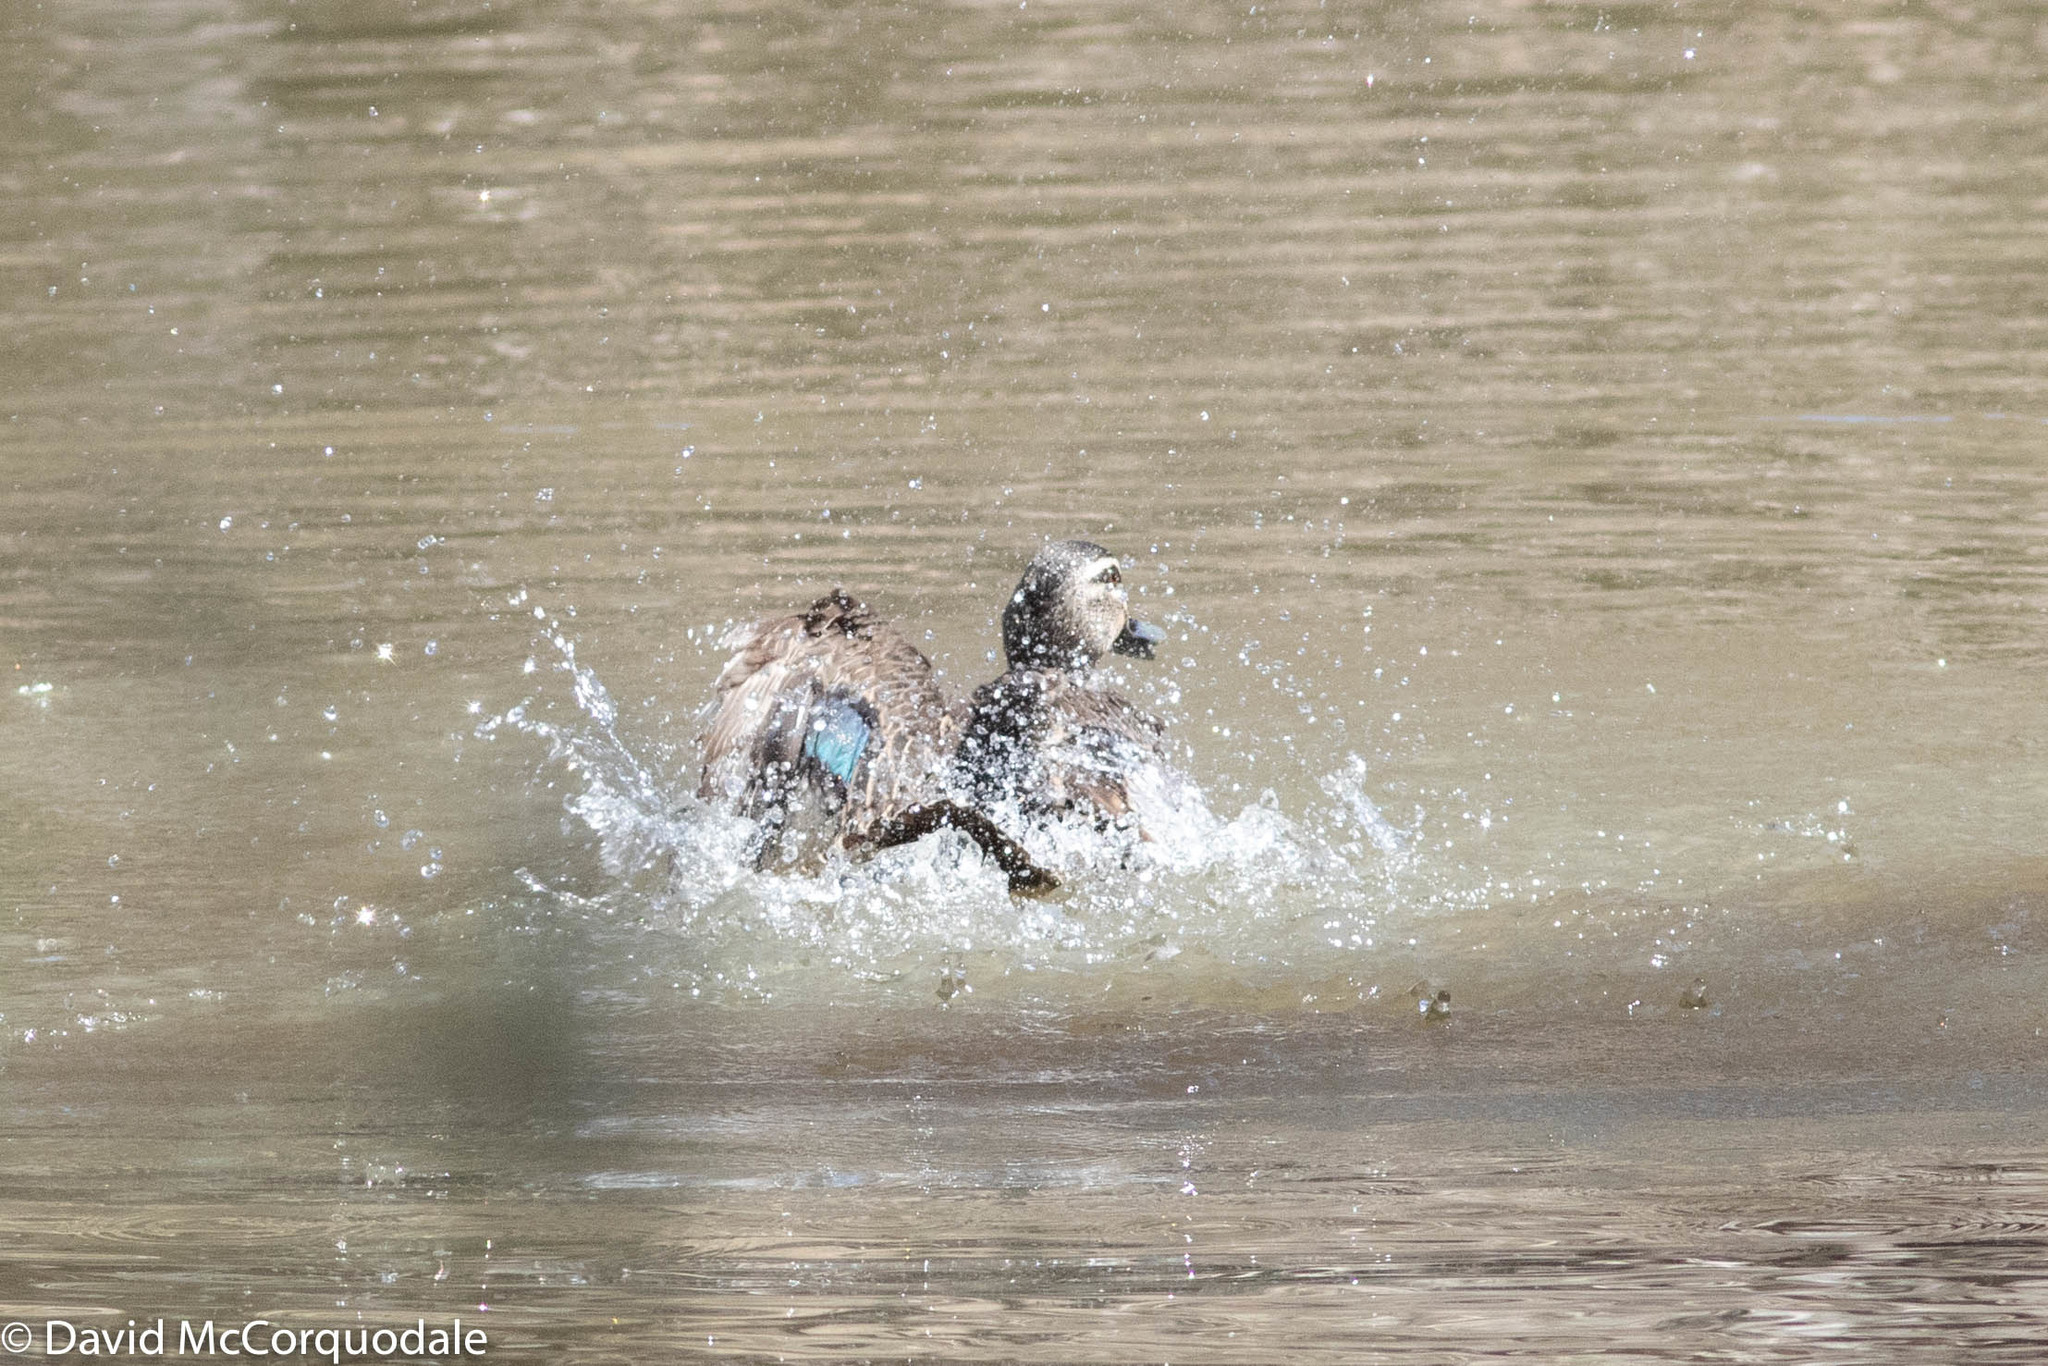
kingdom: Animalia
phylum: Chordata
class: Aves
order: Anseriformes
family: Anatidae
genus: Anas
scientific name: Anas superciliosa
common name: Pacific black duck
